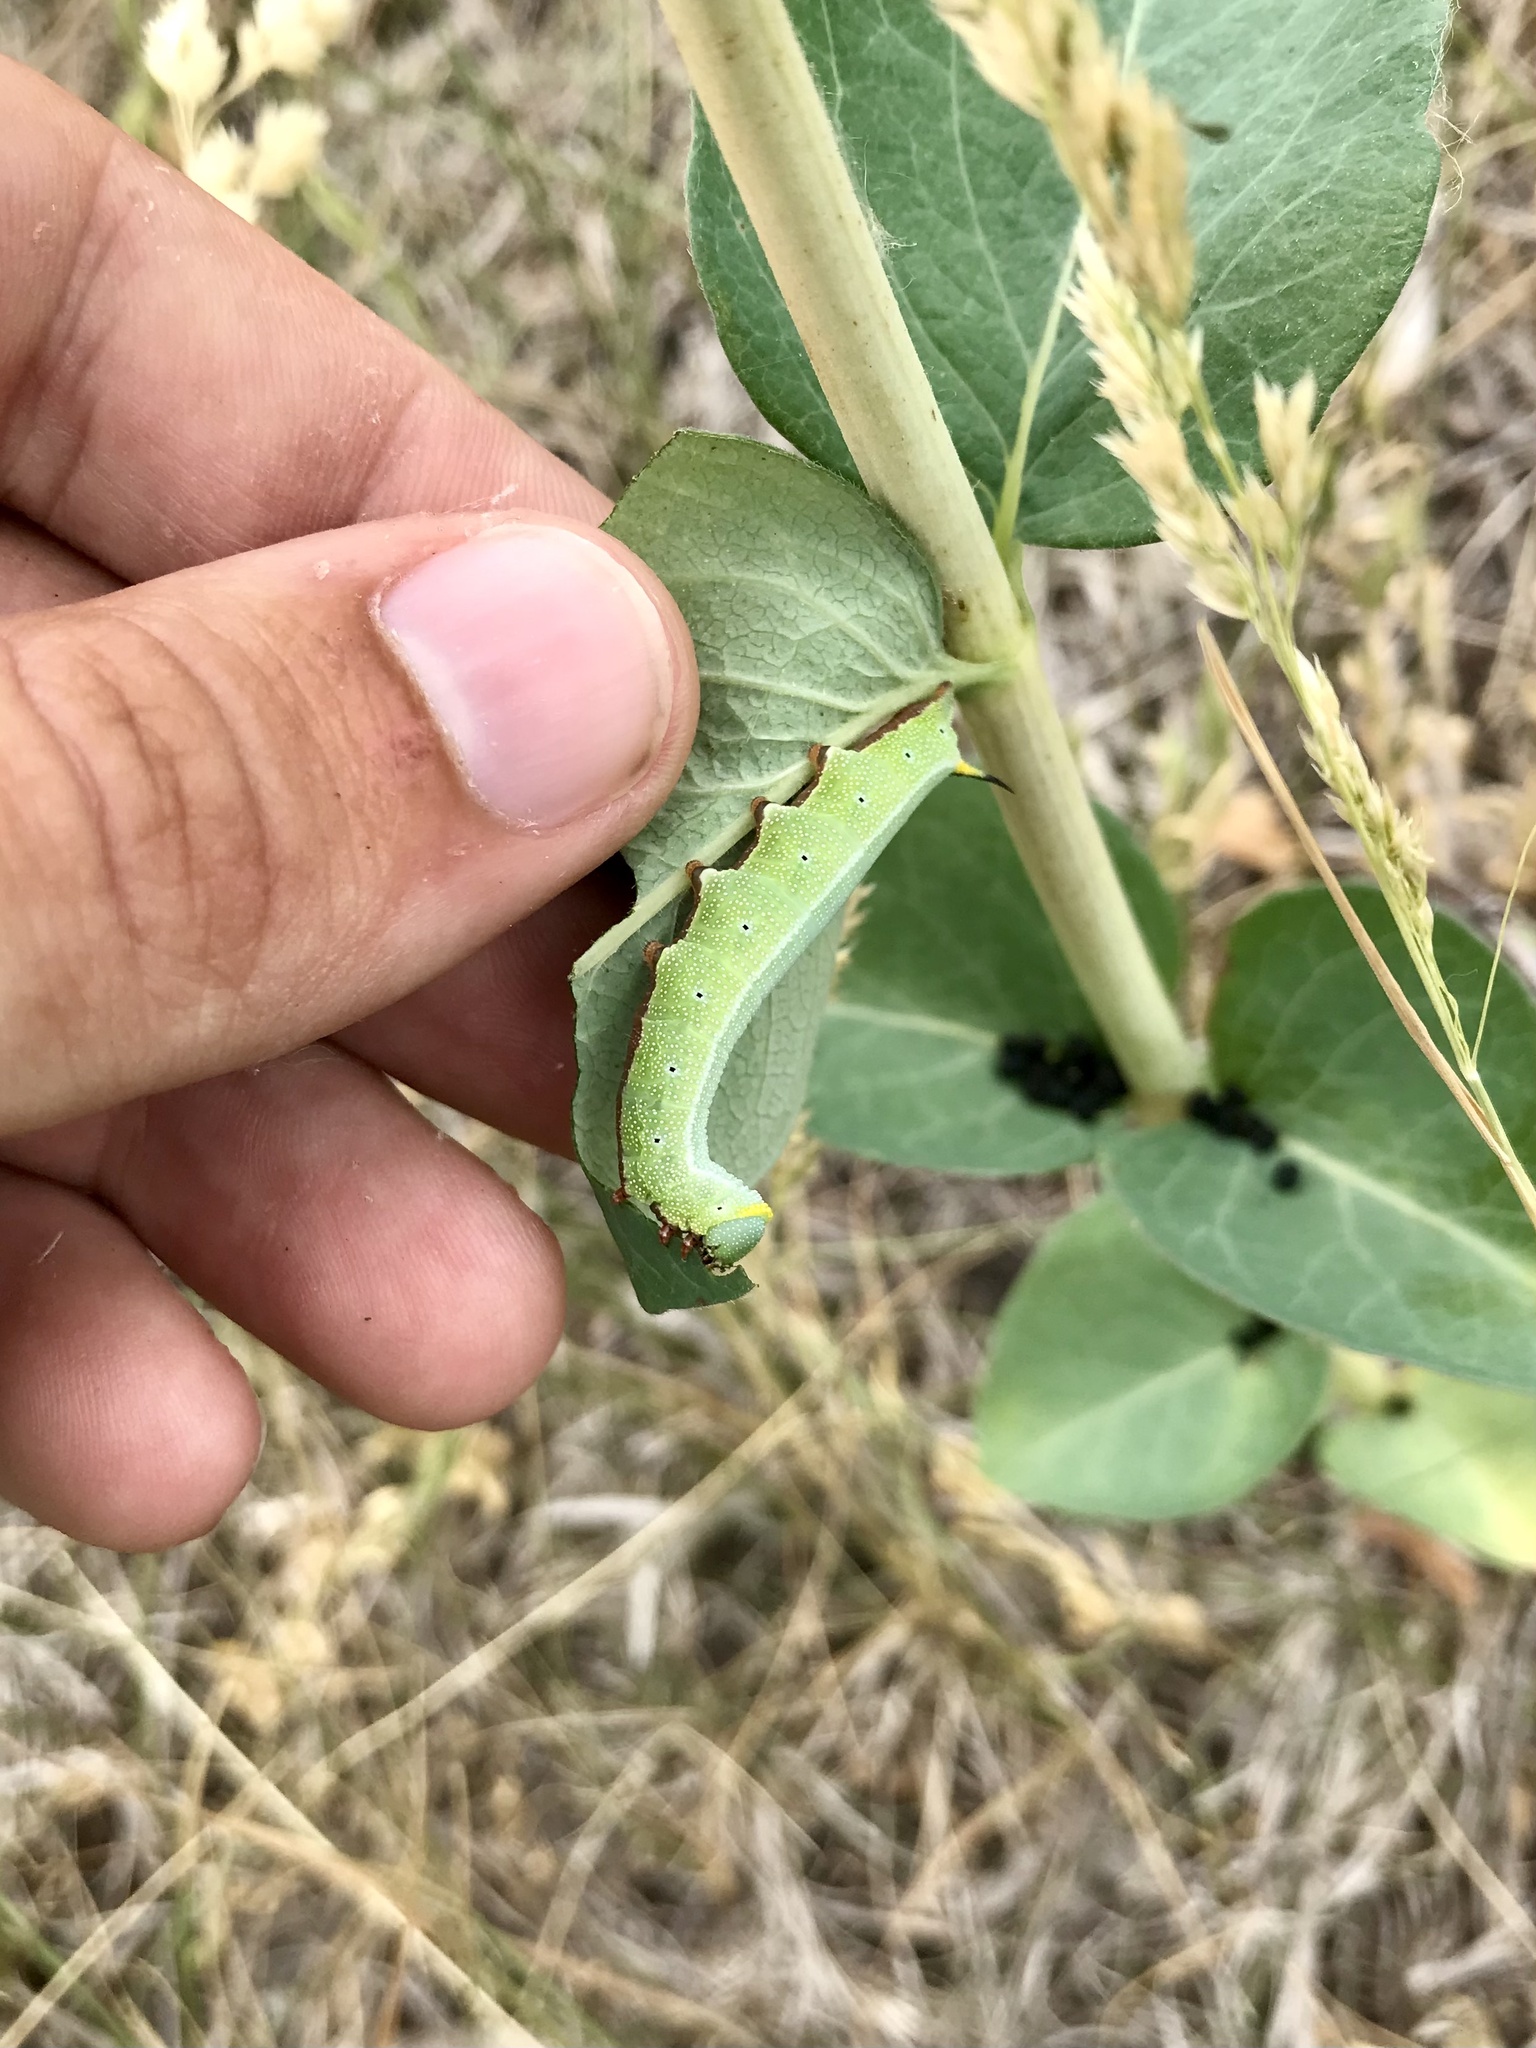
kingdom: Animalia
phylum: Arthropoda
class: Insecta
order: Lepidoptera
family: Sphingidae
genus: Hemaris
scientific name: Hemaris diffinis
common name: Bumblebee moth
